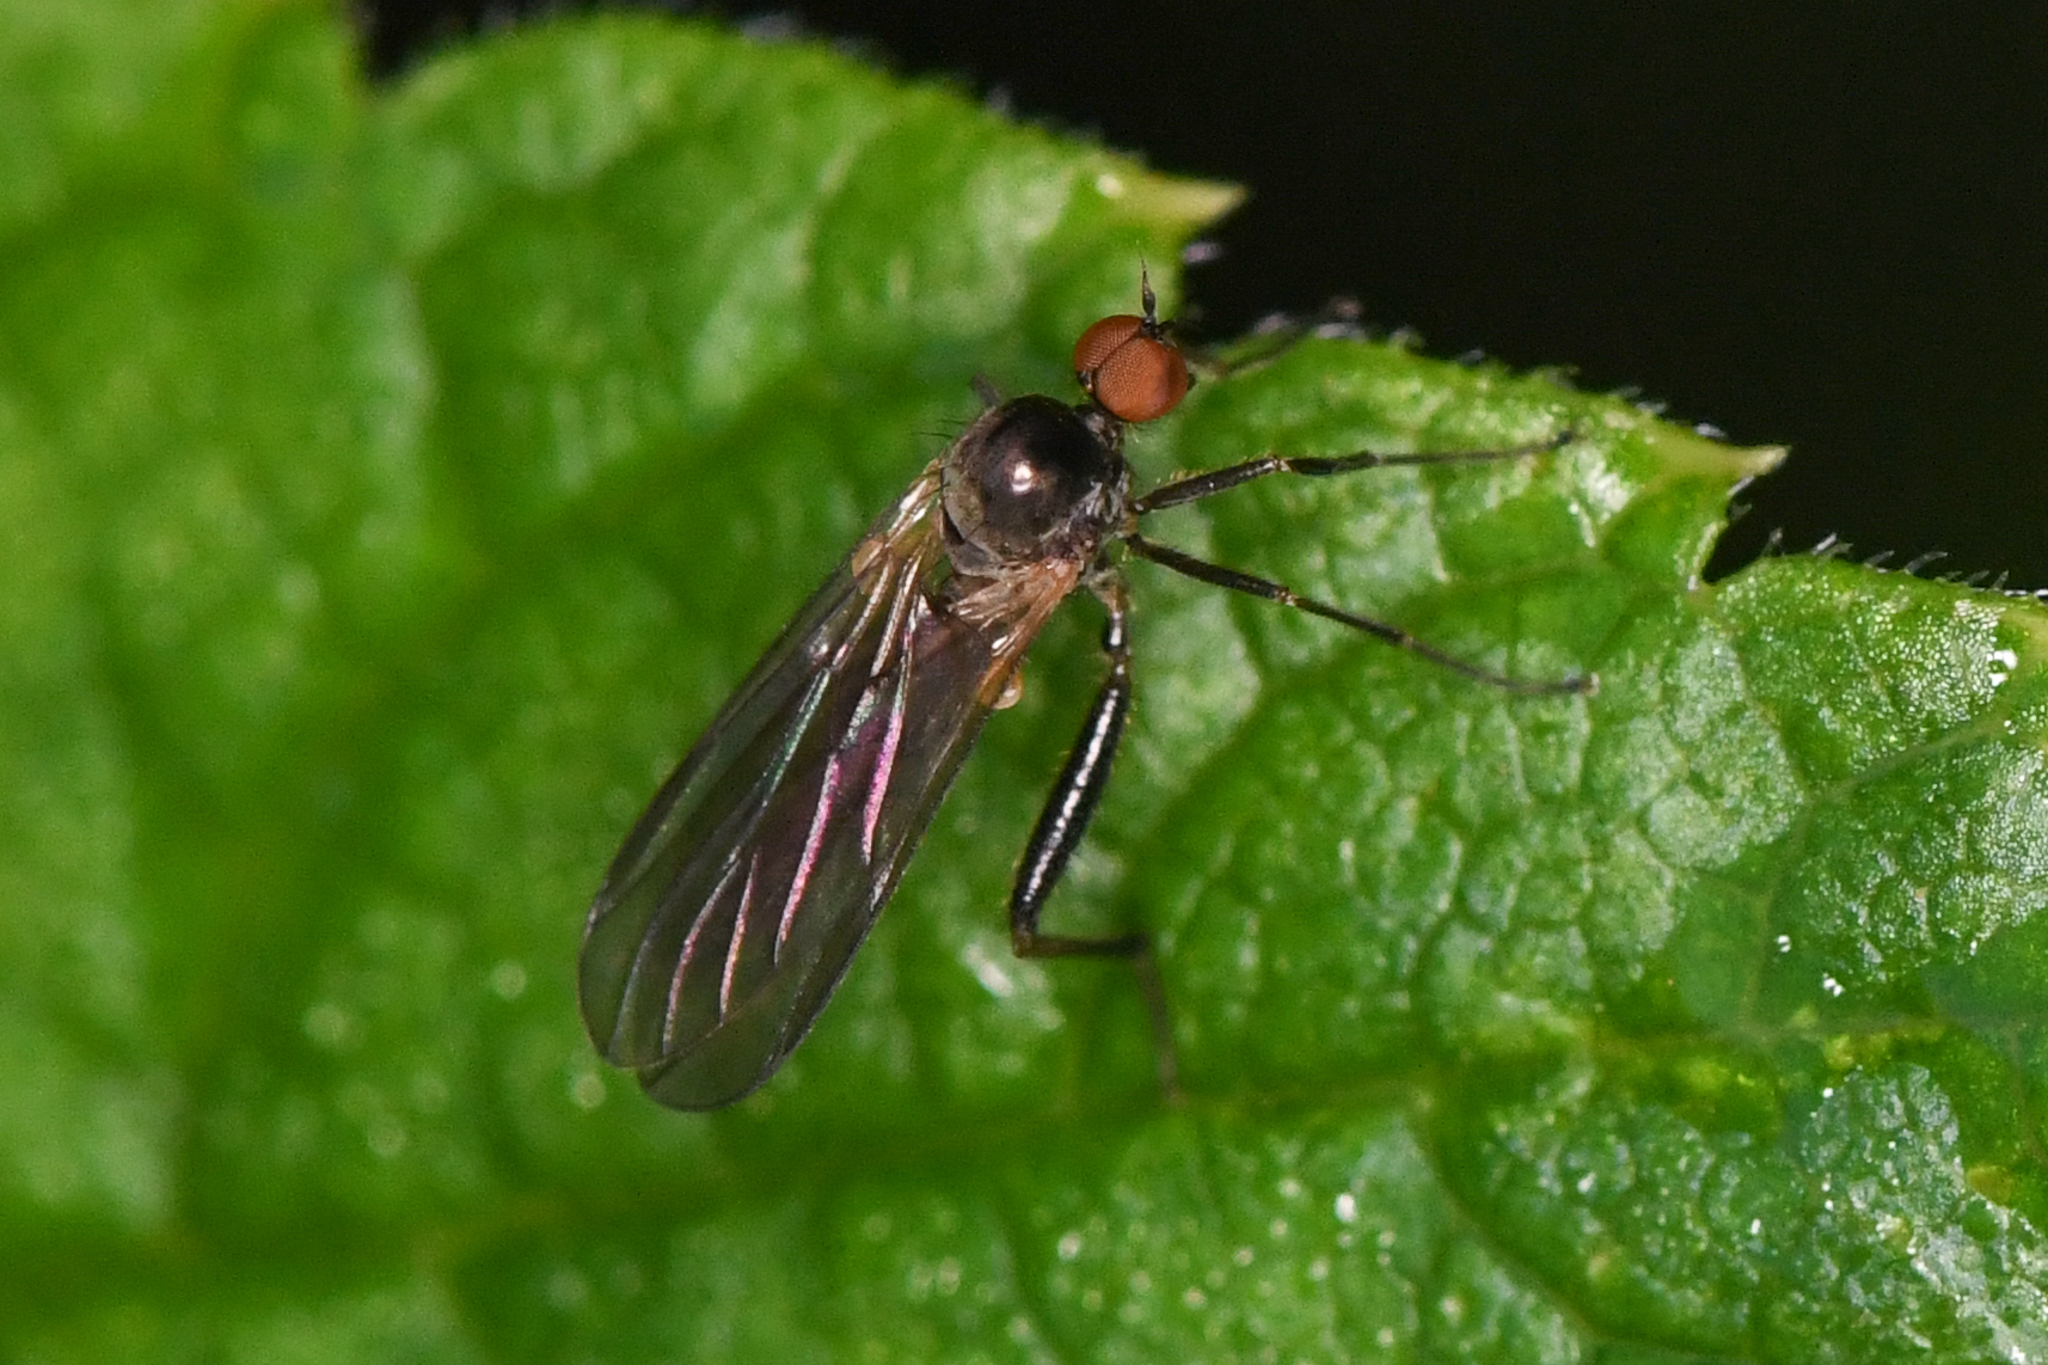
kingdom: Animalia
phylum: Arthropoda
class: Insecta
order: Diptera
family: Hybotidae
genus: Hoplocyrtoma
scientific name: Hoplocyrtoma procera
